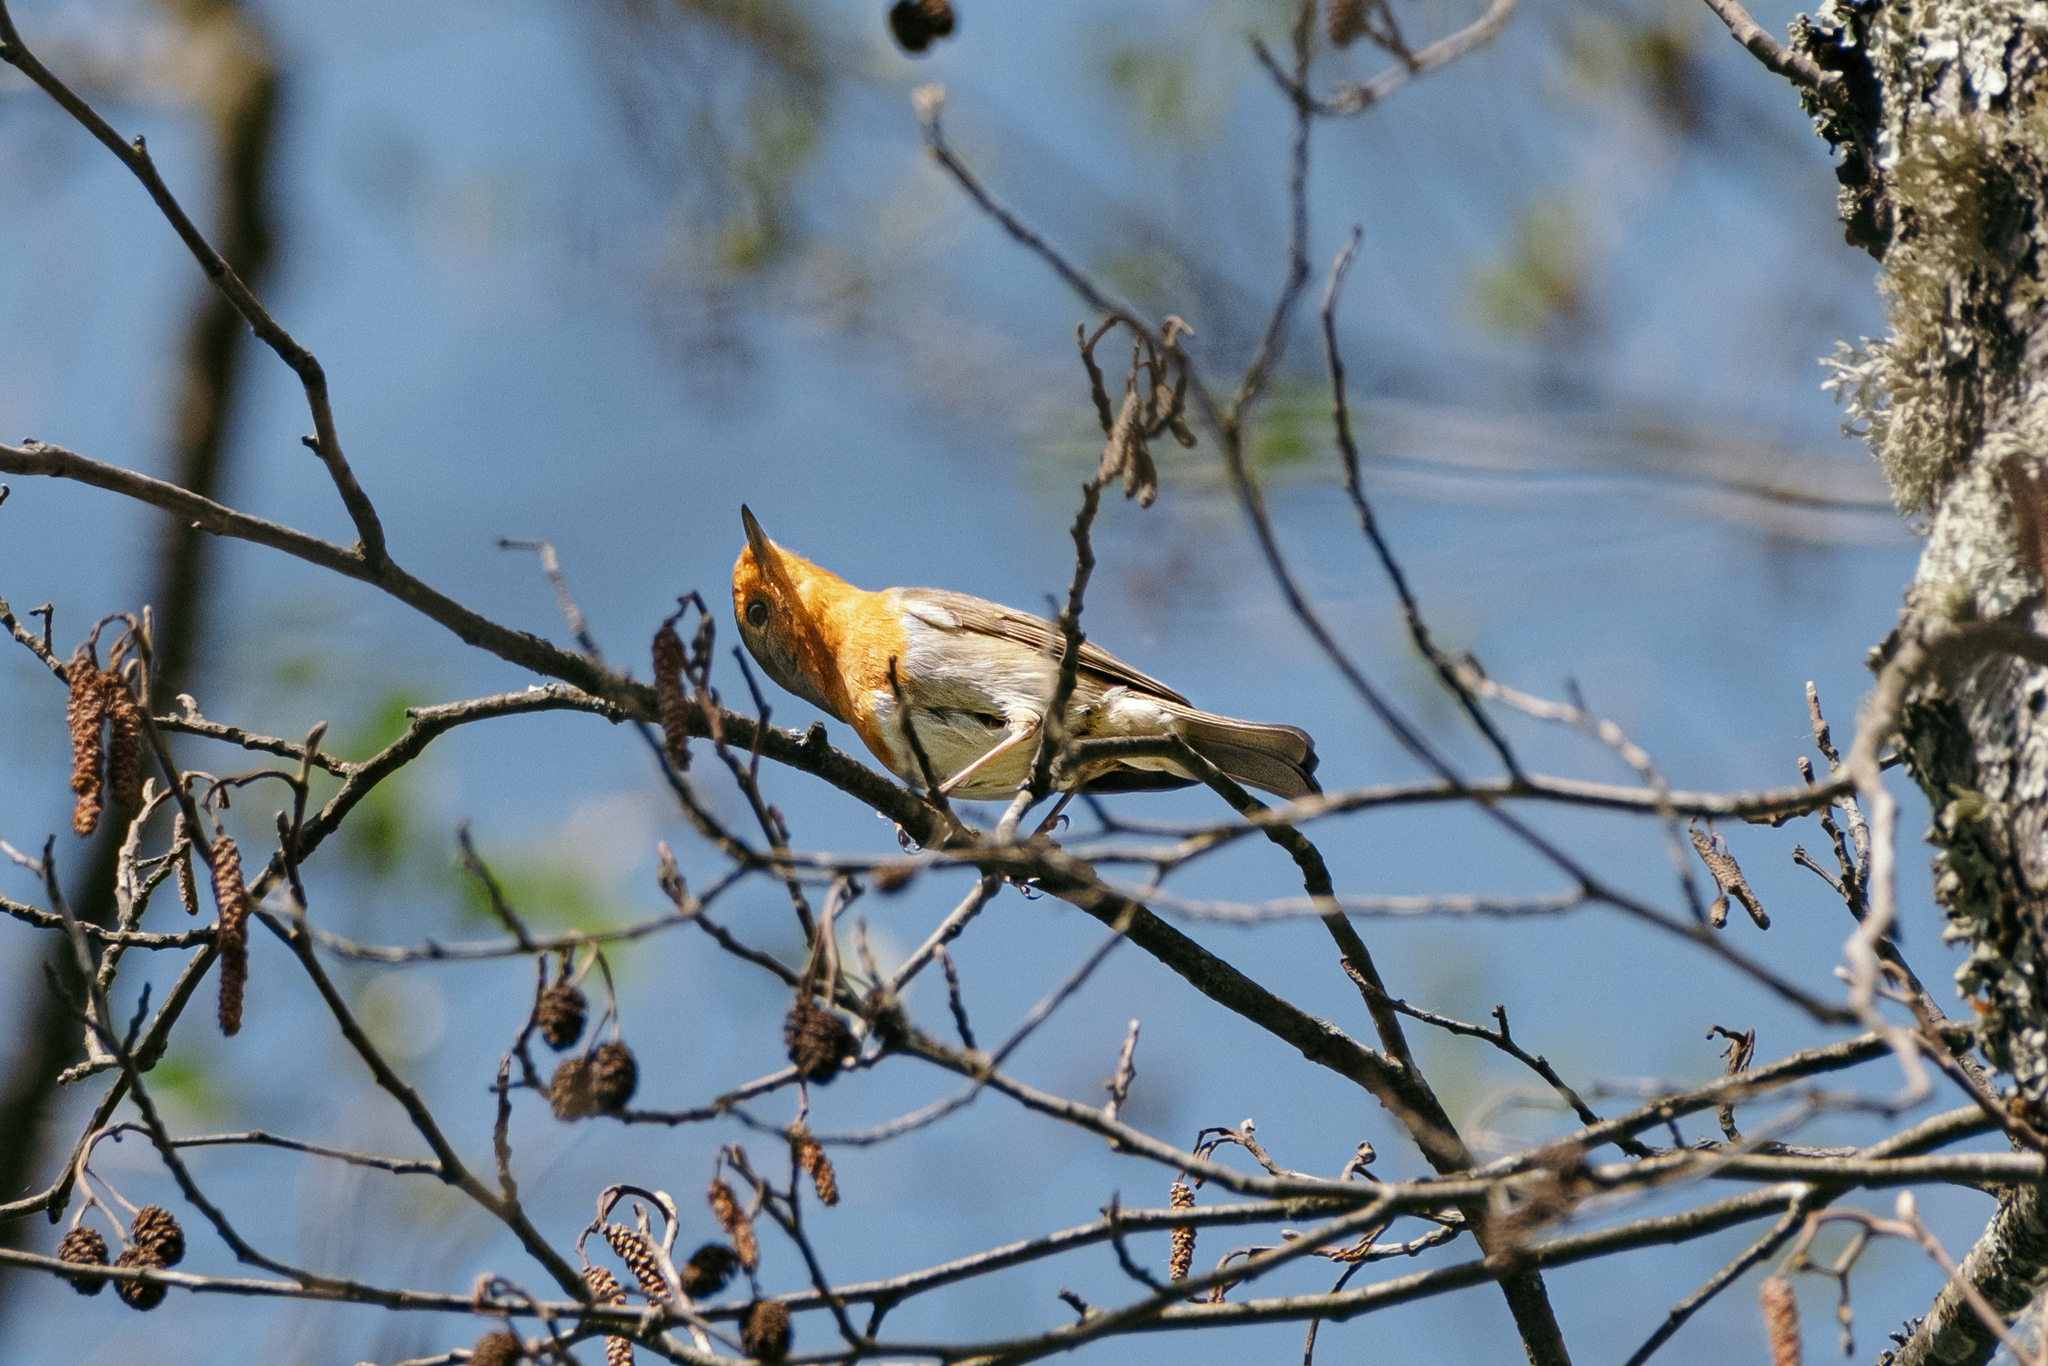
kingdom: Animalia
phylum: Chordata
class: Aves
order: Passeriformes
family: Muscicapidae
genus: Erithacus
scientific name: Erithacus rubecula
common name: European robin
